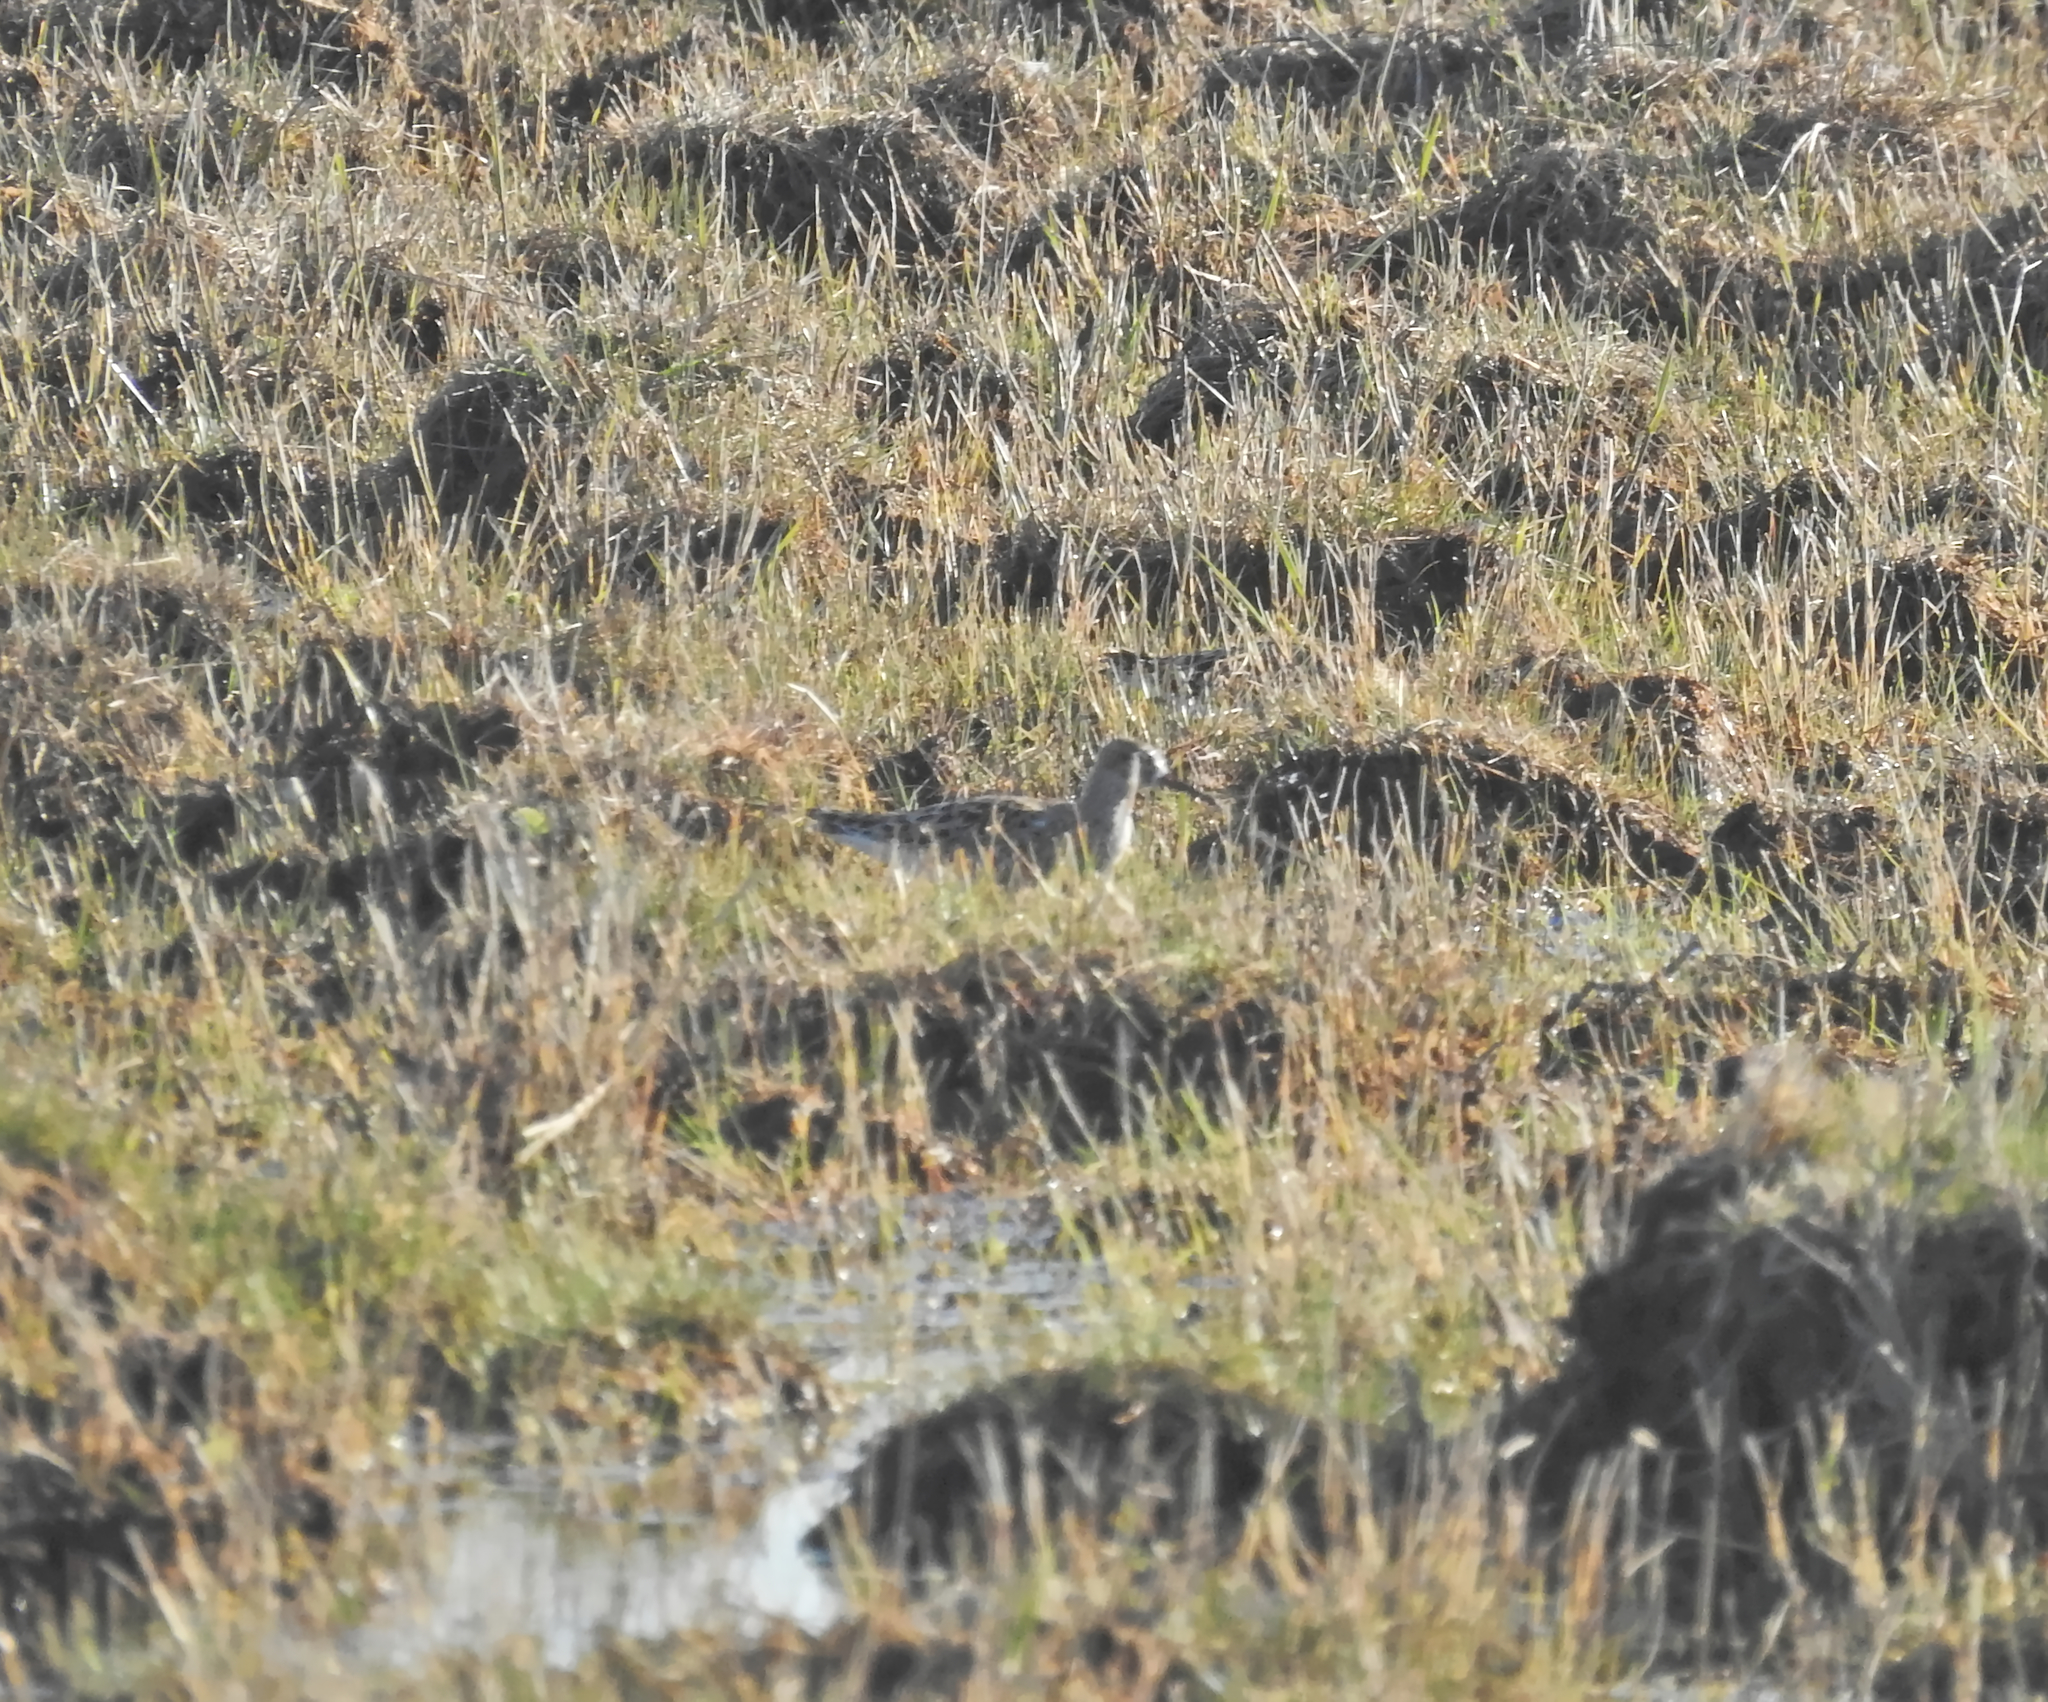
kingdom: Animalia
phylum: Chordata
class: Aves
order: Charadriiformes
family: Scolopacidae
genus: Calidris
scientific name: Calidris pugnax
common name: Ruff
